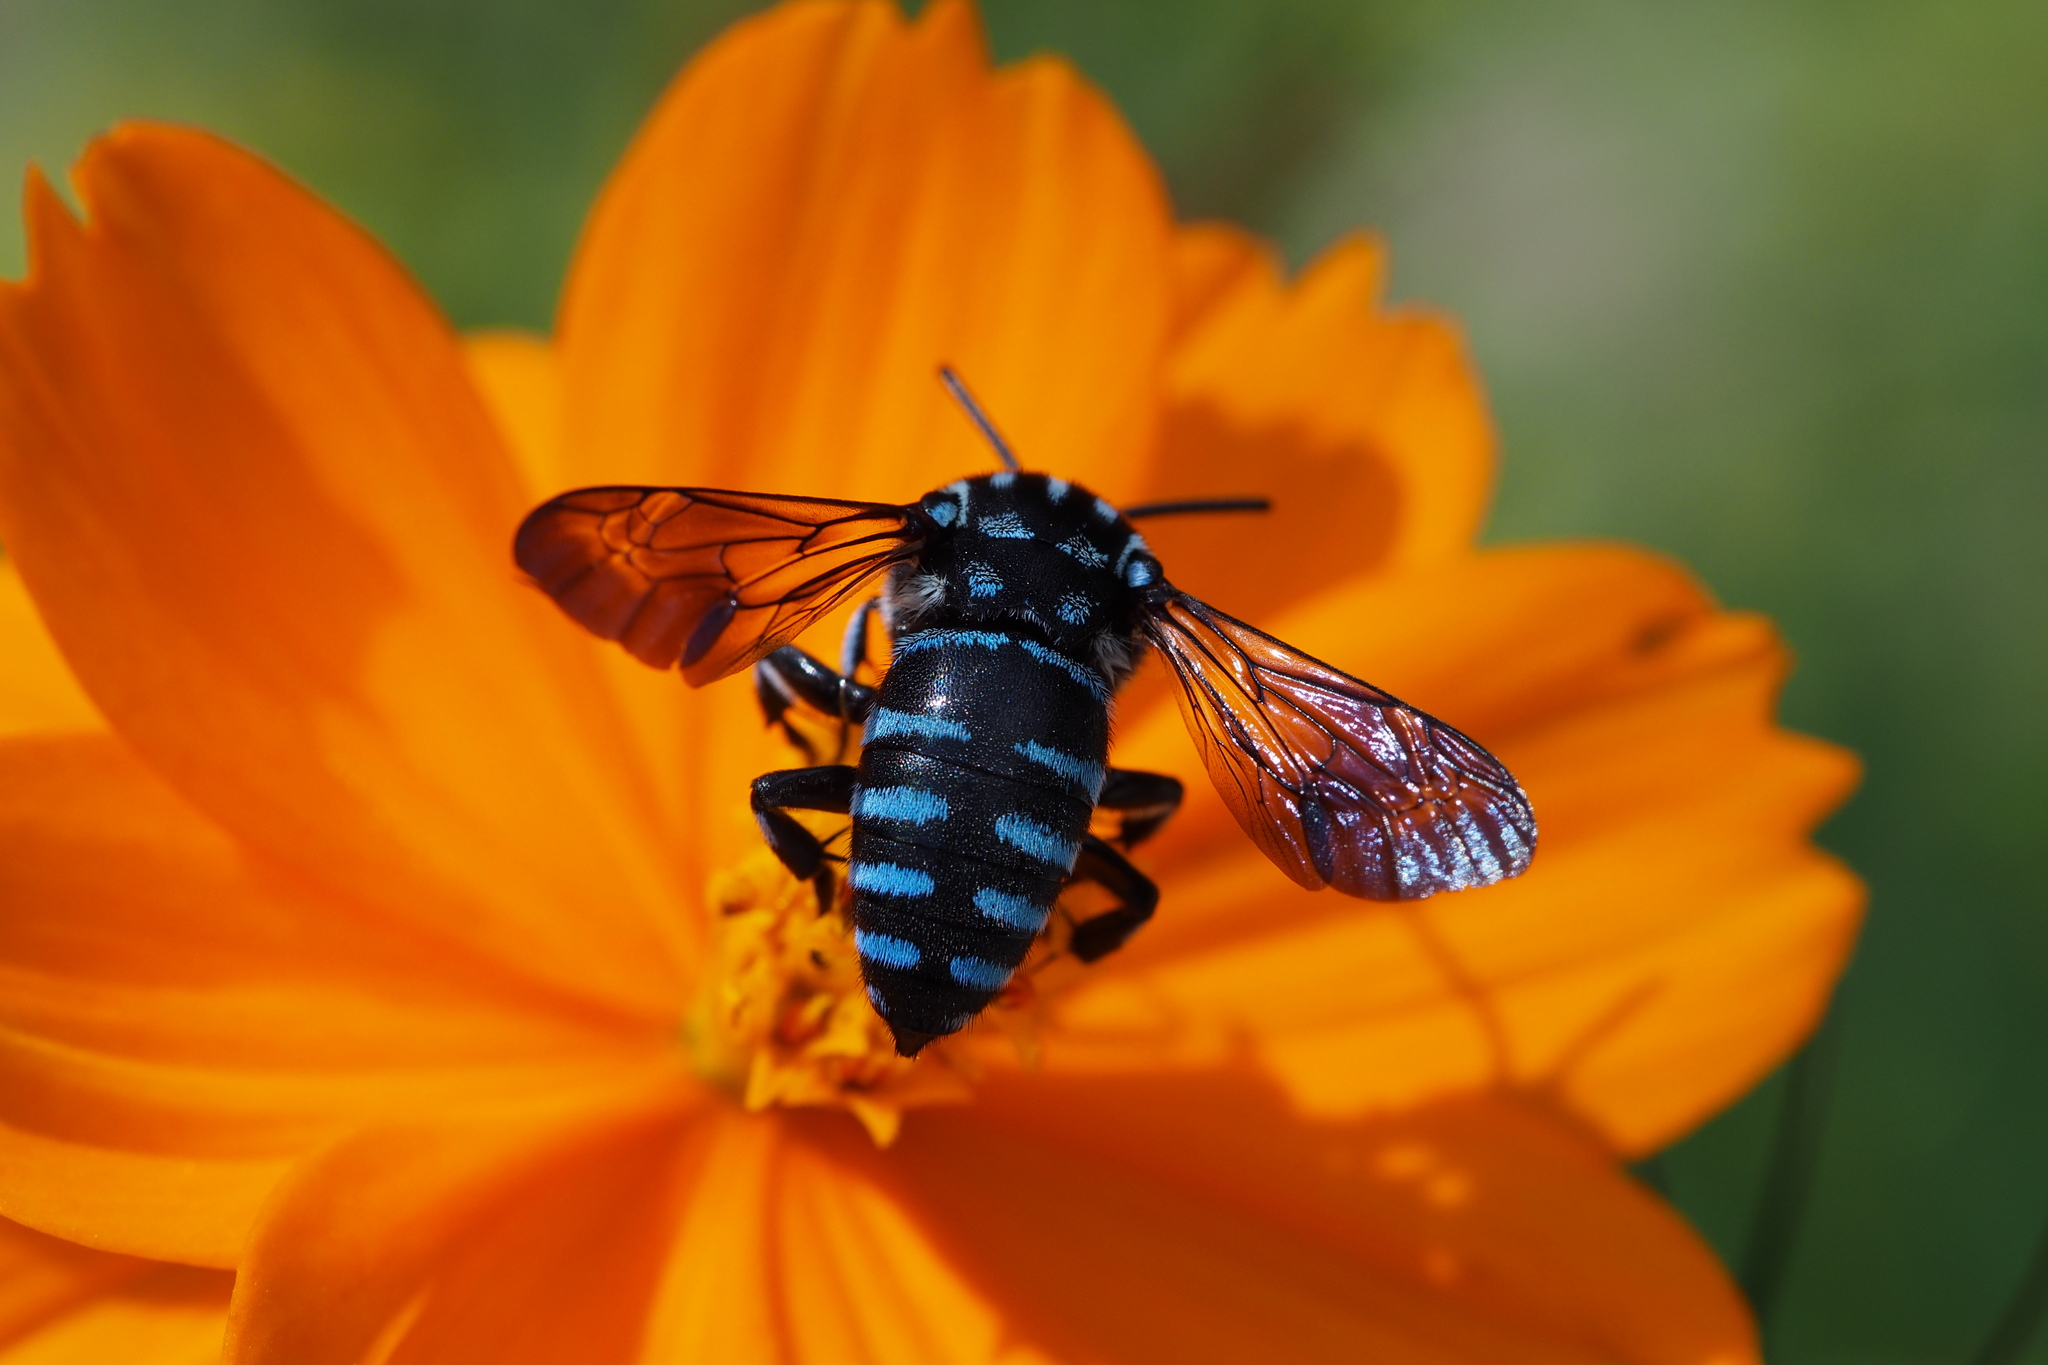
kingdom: Animalia
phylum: Arthropoda
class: Insecta
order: Hymenoptera
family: Apidae
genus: Thyreus
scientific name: Thyreus decorus
